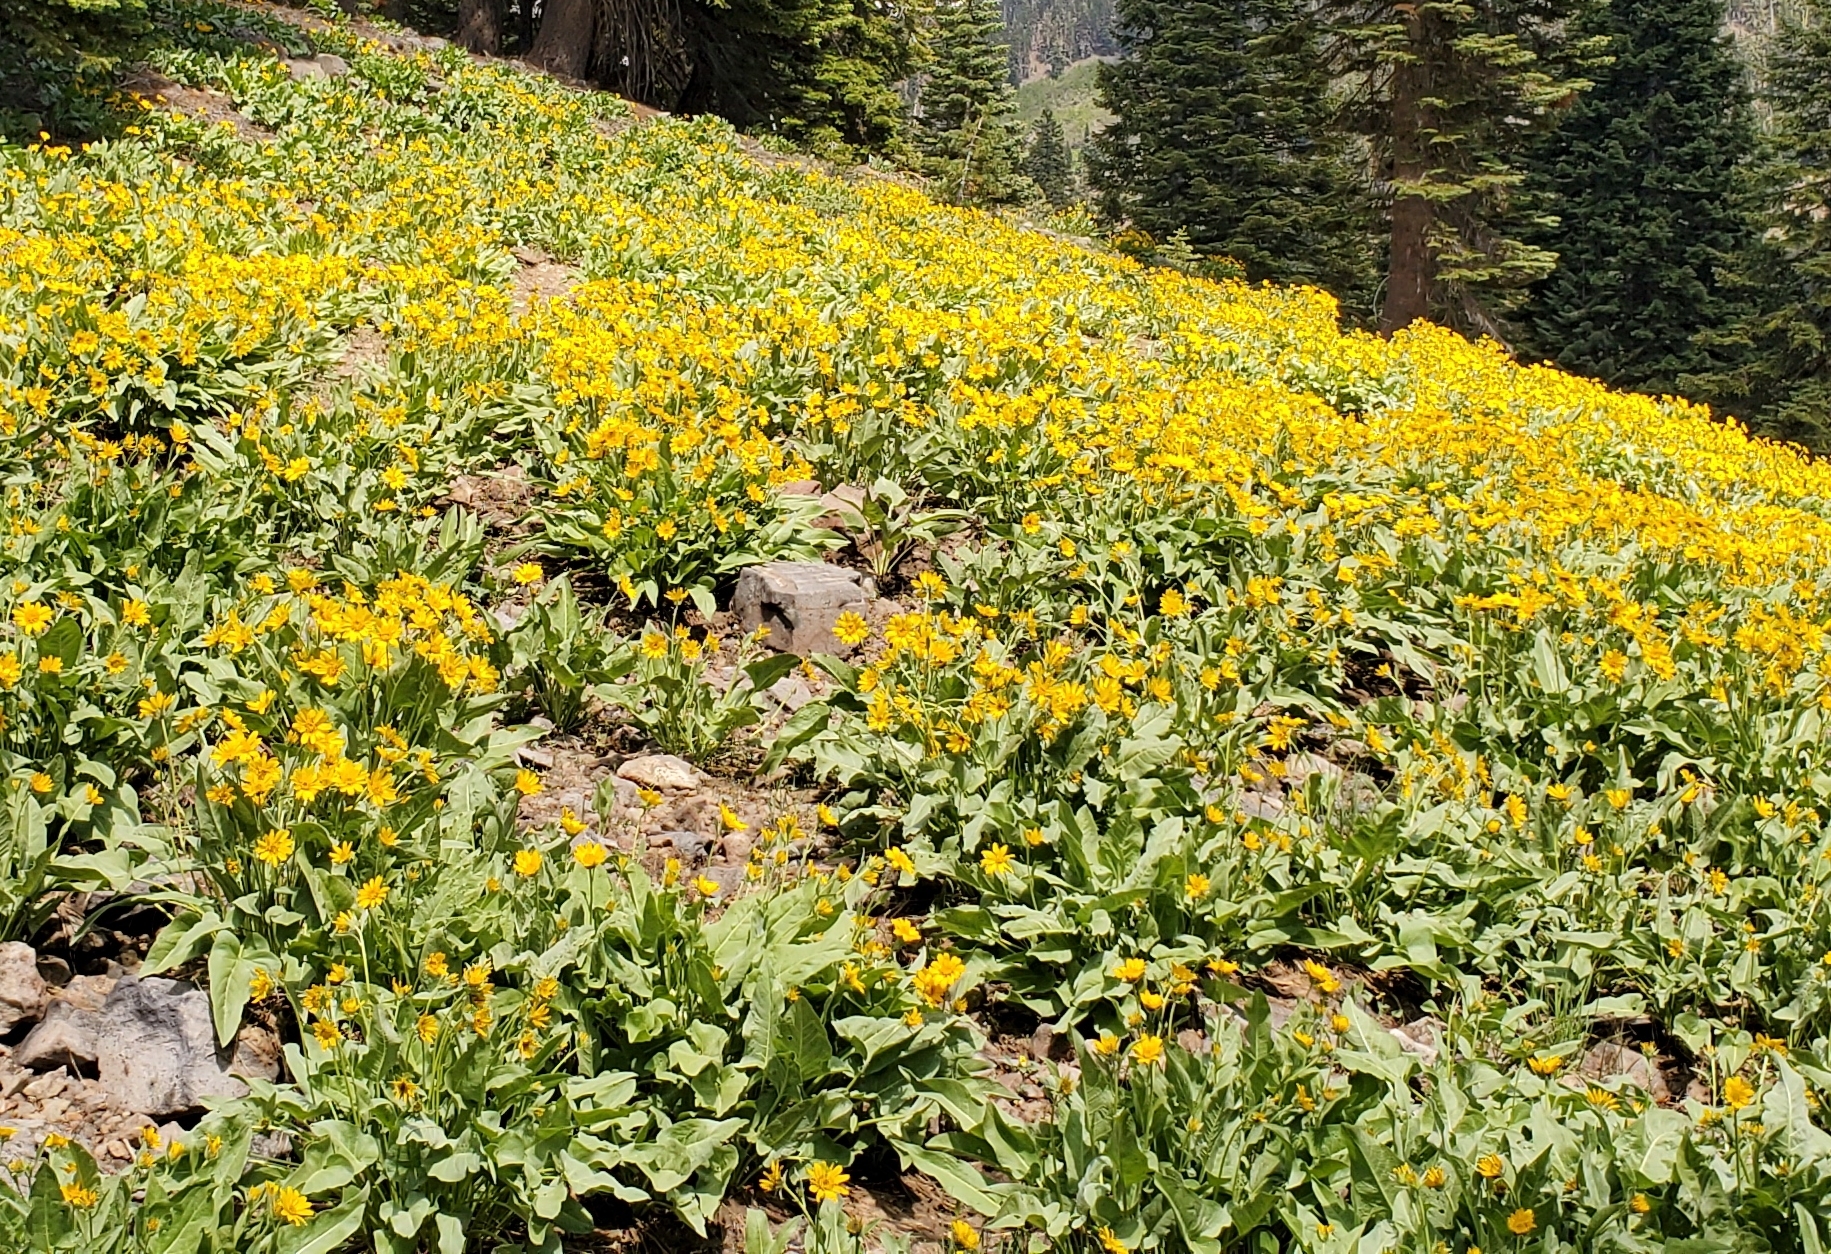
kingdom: Plantae
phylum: Tracheophyta
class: Magnoliopsida
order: Asterales
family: Asteraceae
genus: Wyethia
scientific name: Wyethia sagittata
